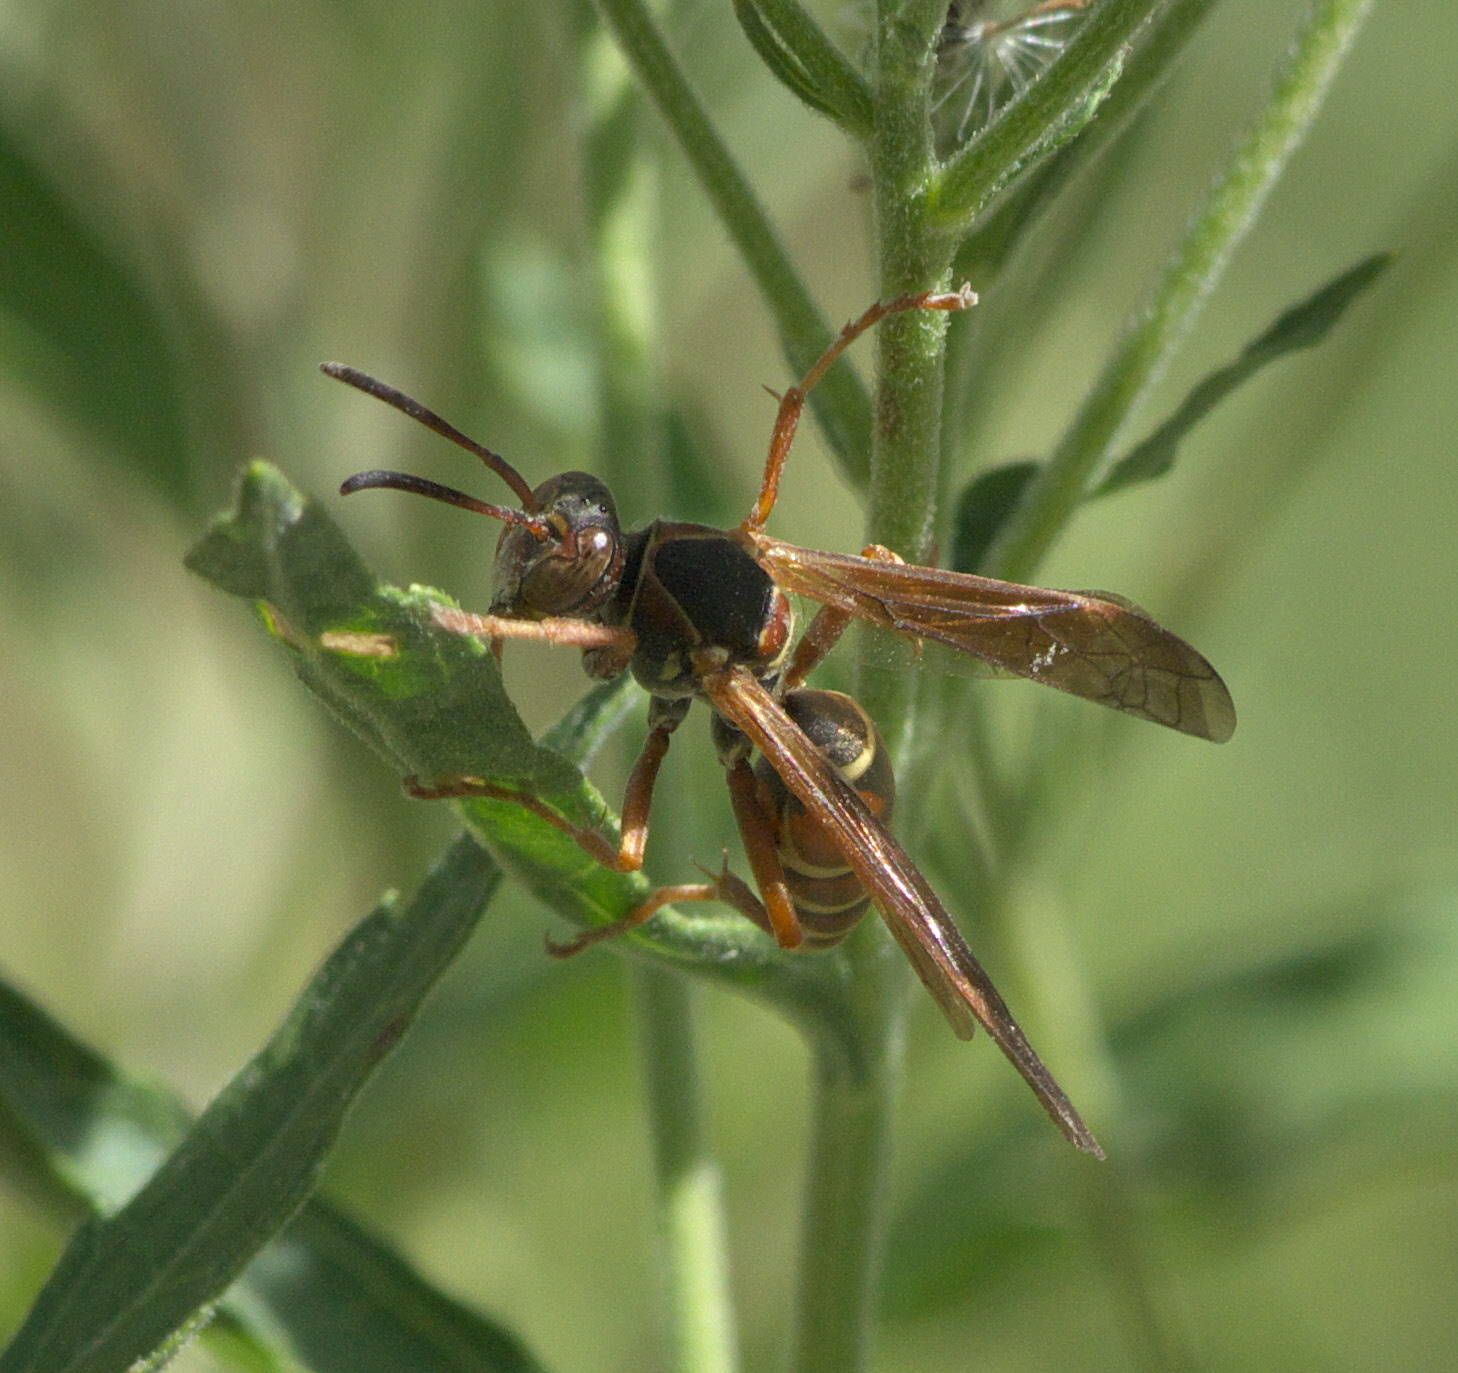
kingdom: Animalia
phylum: Arthropoda
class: Insecta
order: Hymenoptera
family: Eumenidae
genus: Polistes
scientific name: Polistes fuscatus
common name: Dark paper wasp
